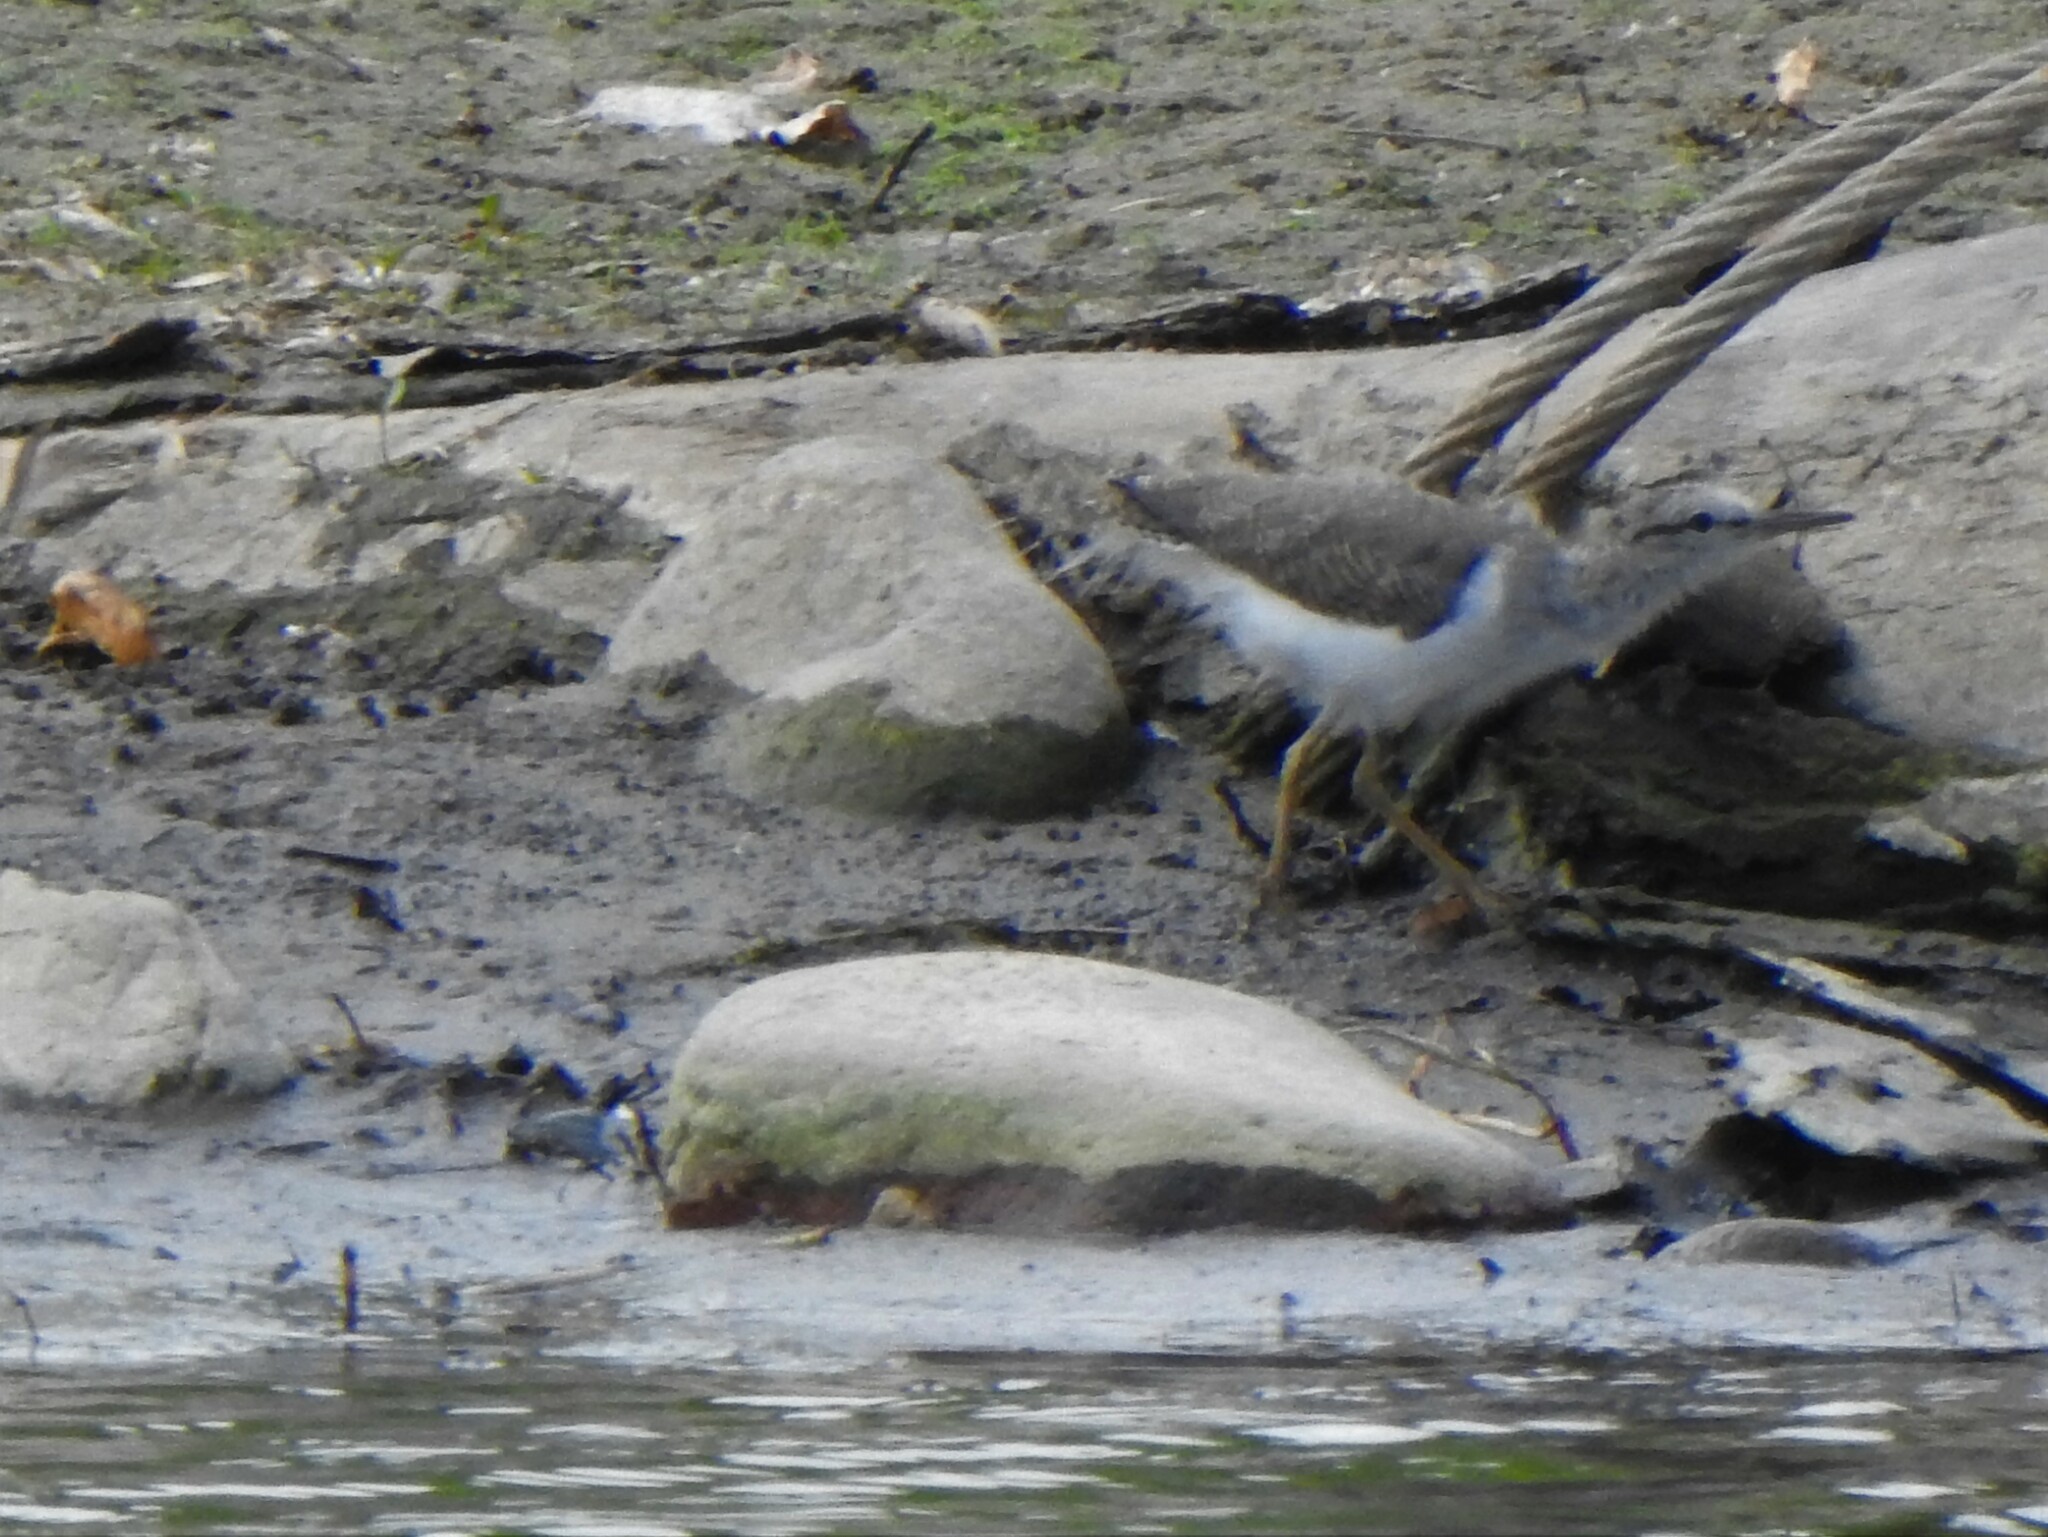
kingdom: Animalia
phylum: Chordata
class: Aves
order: Charadriiformes
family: Scolopacidae
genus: Actitis
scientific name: Actitis macularius
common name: Spotted sandpiper
